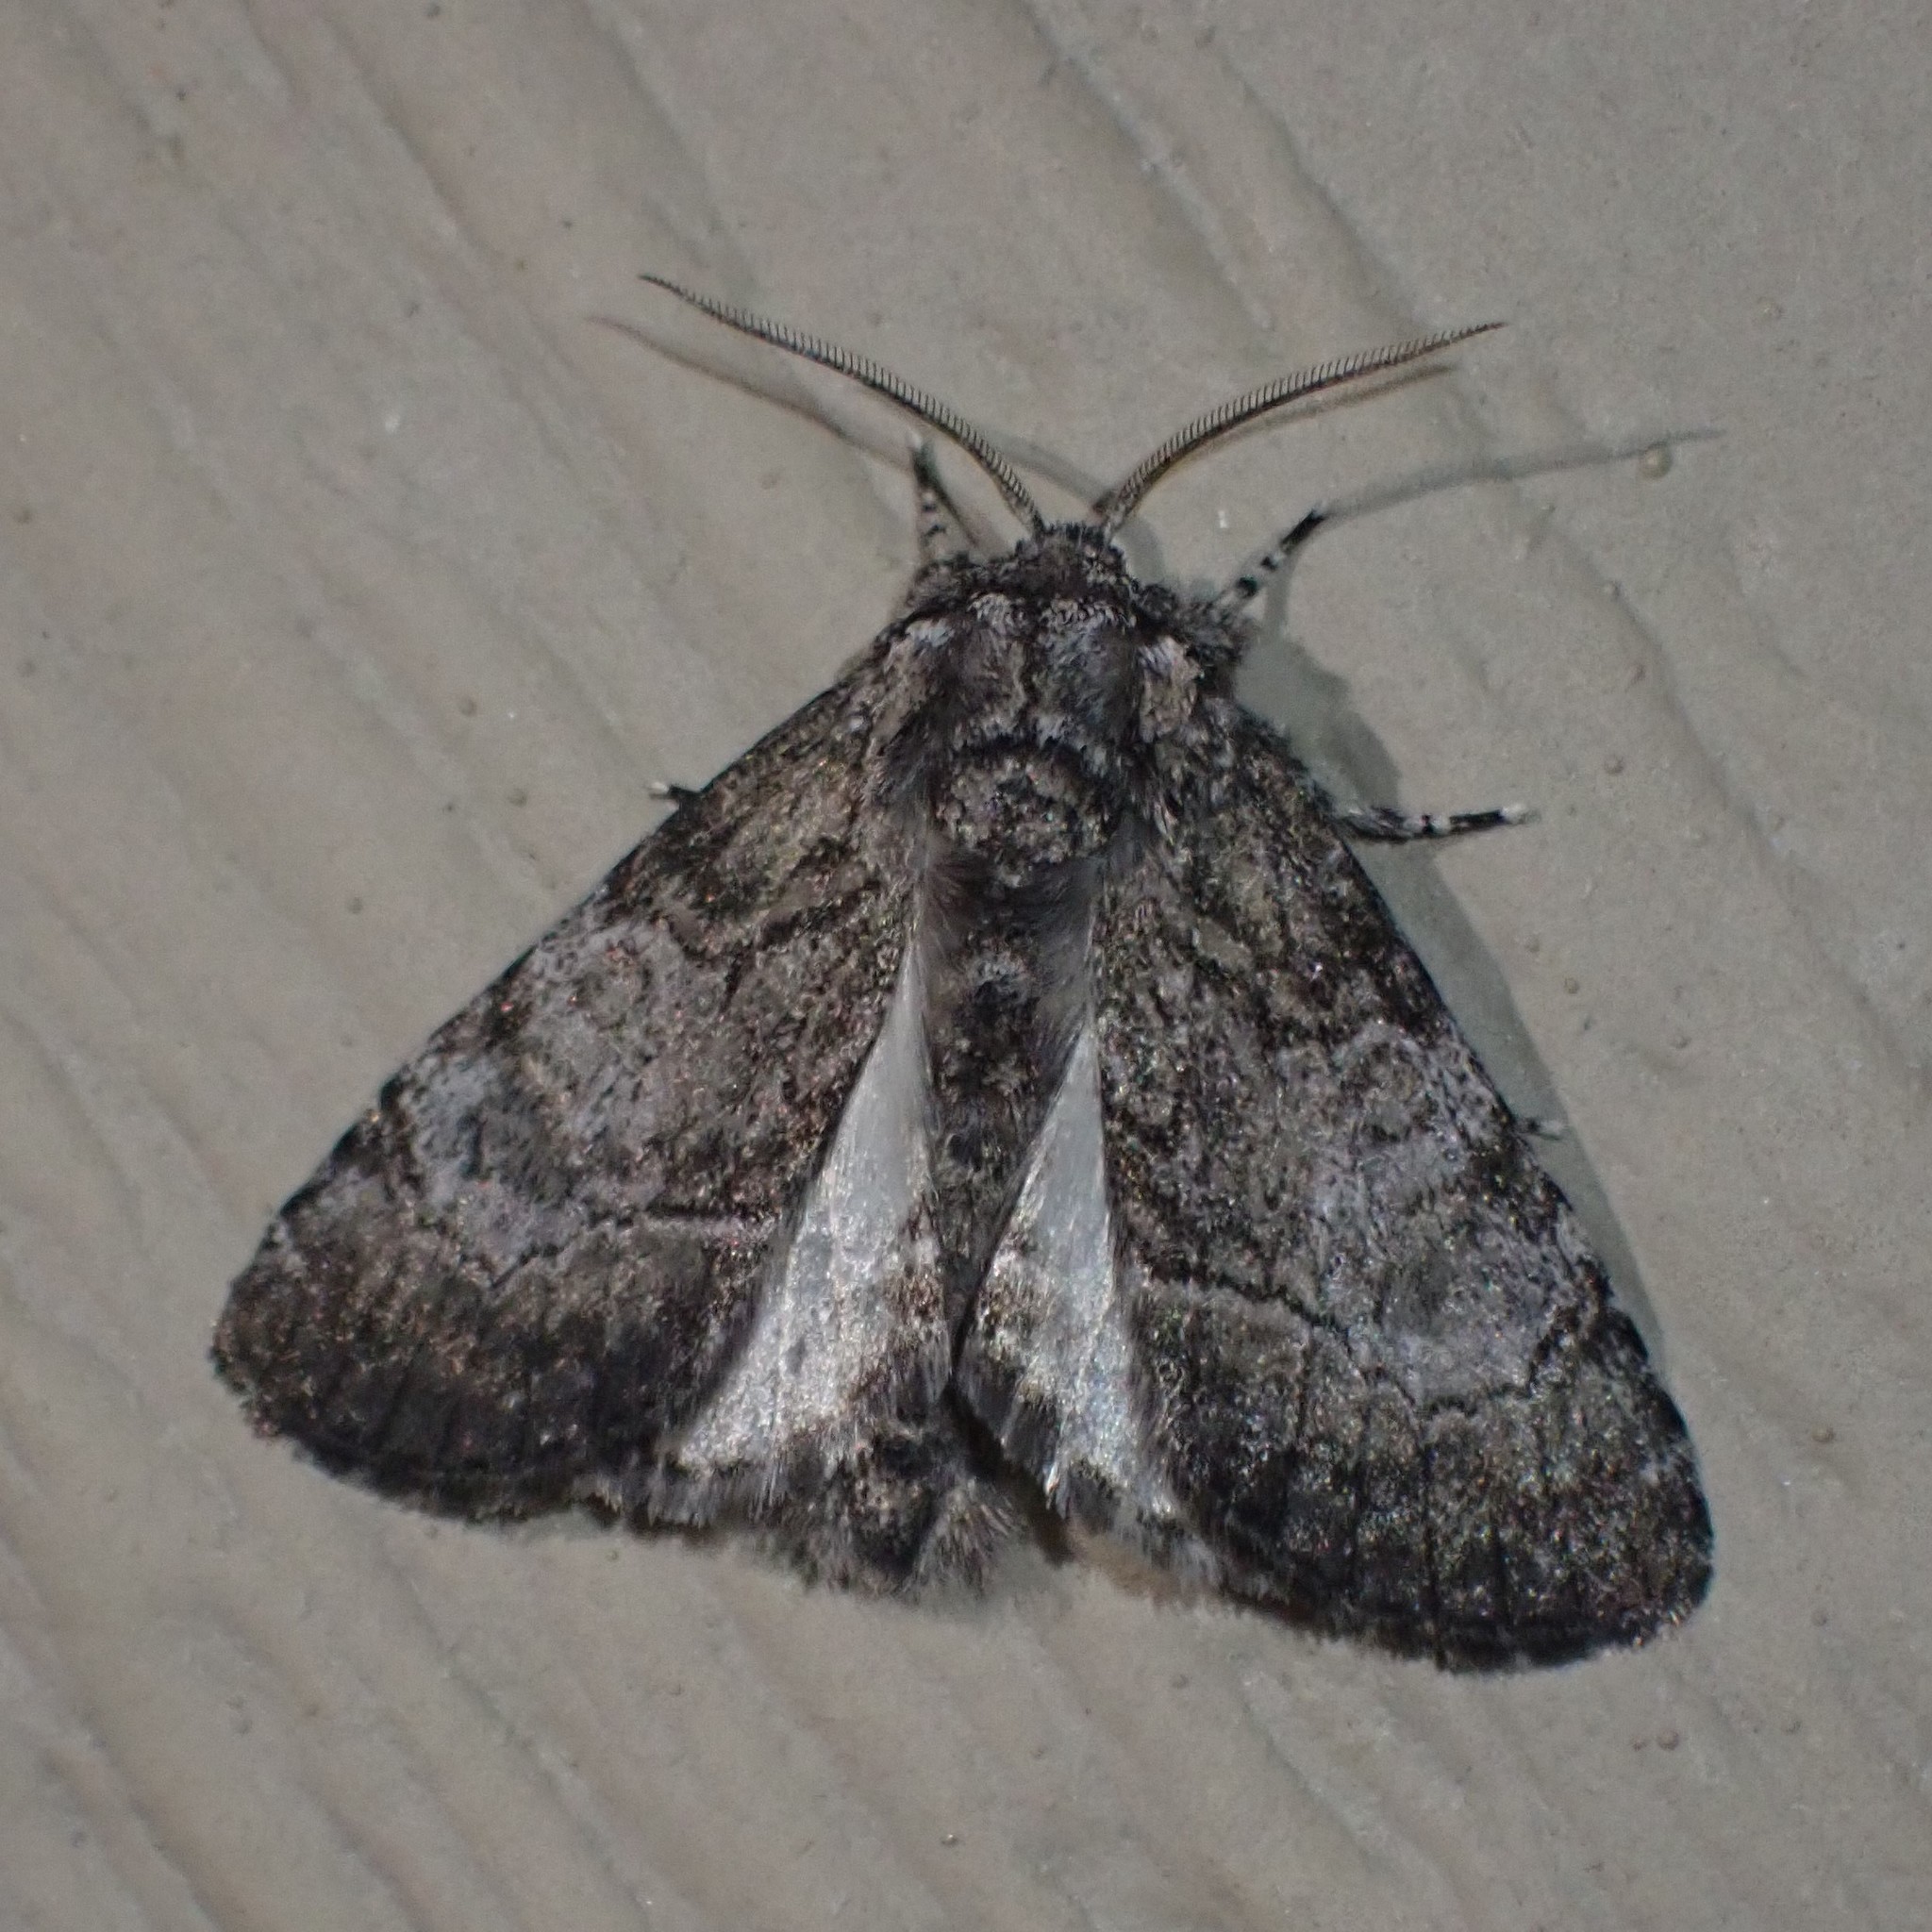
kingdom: Animalia
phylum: Arthropoda
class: Insecta
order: Lepidoptera
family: Noctuidae
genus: Raphia
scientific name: Raphia frater
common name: Brother
